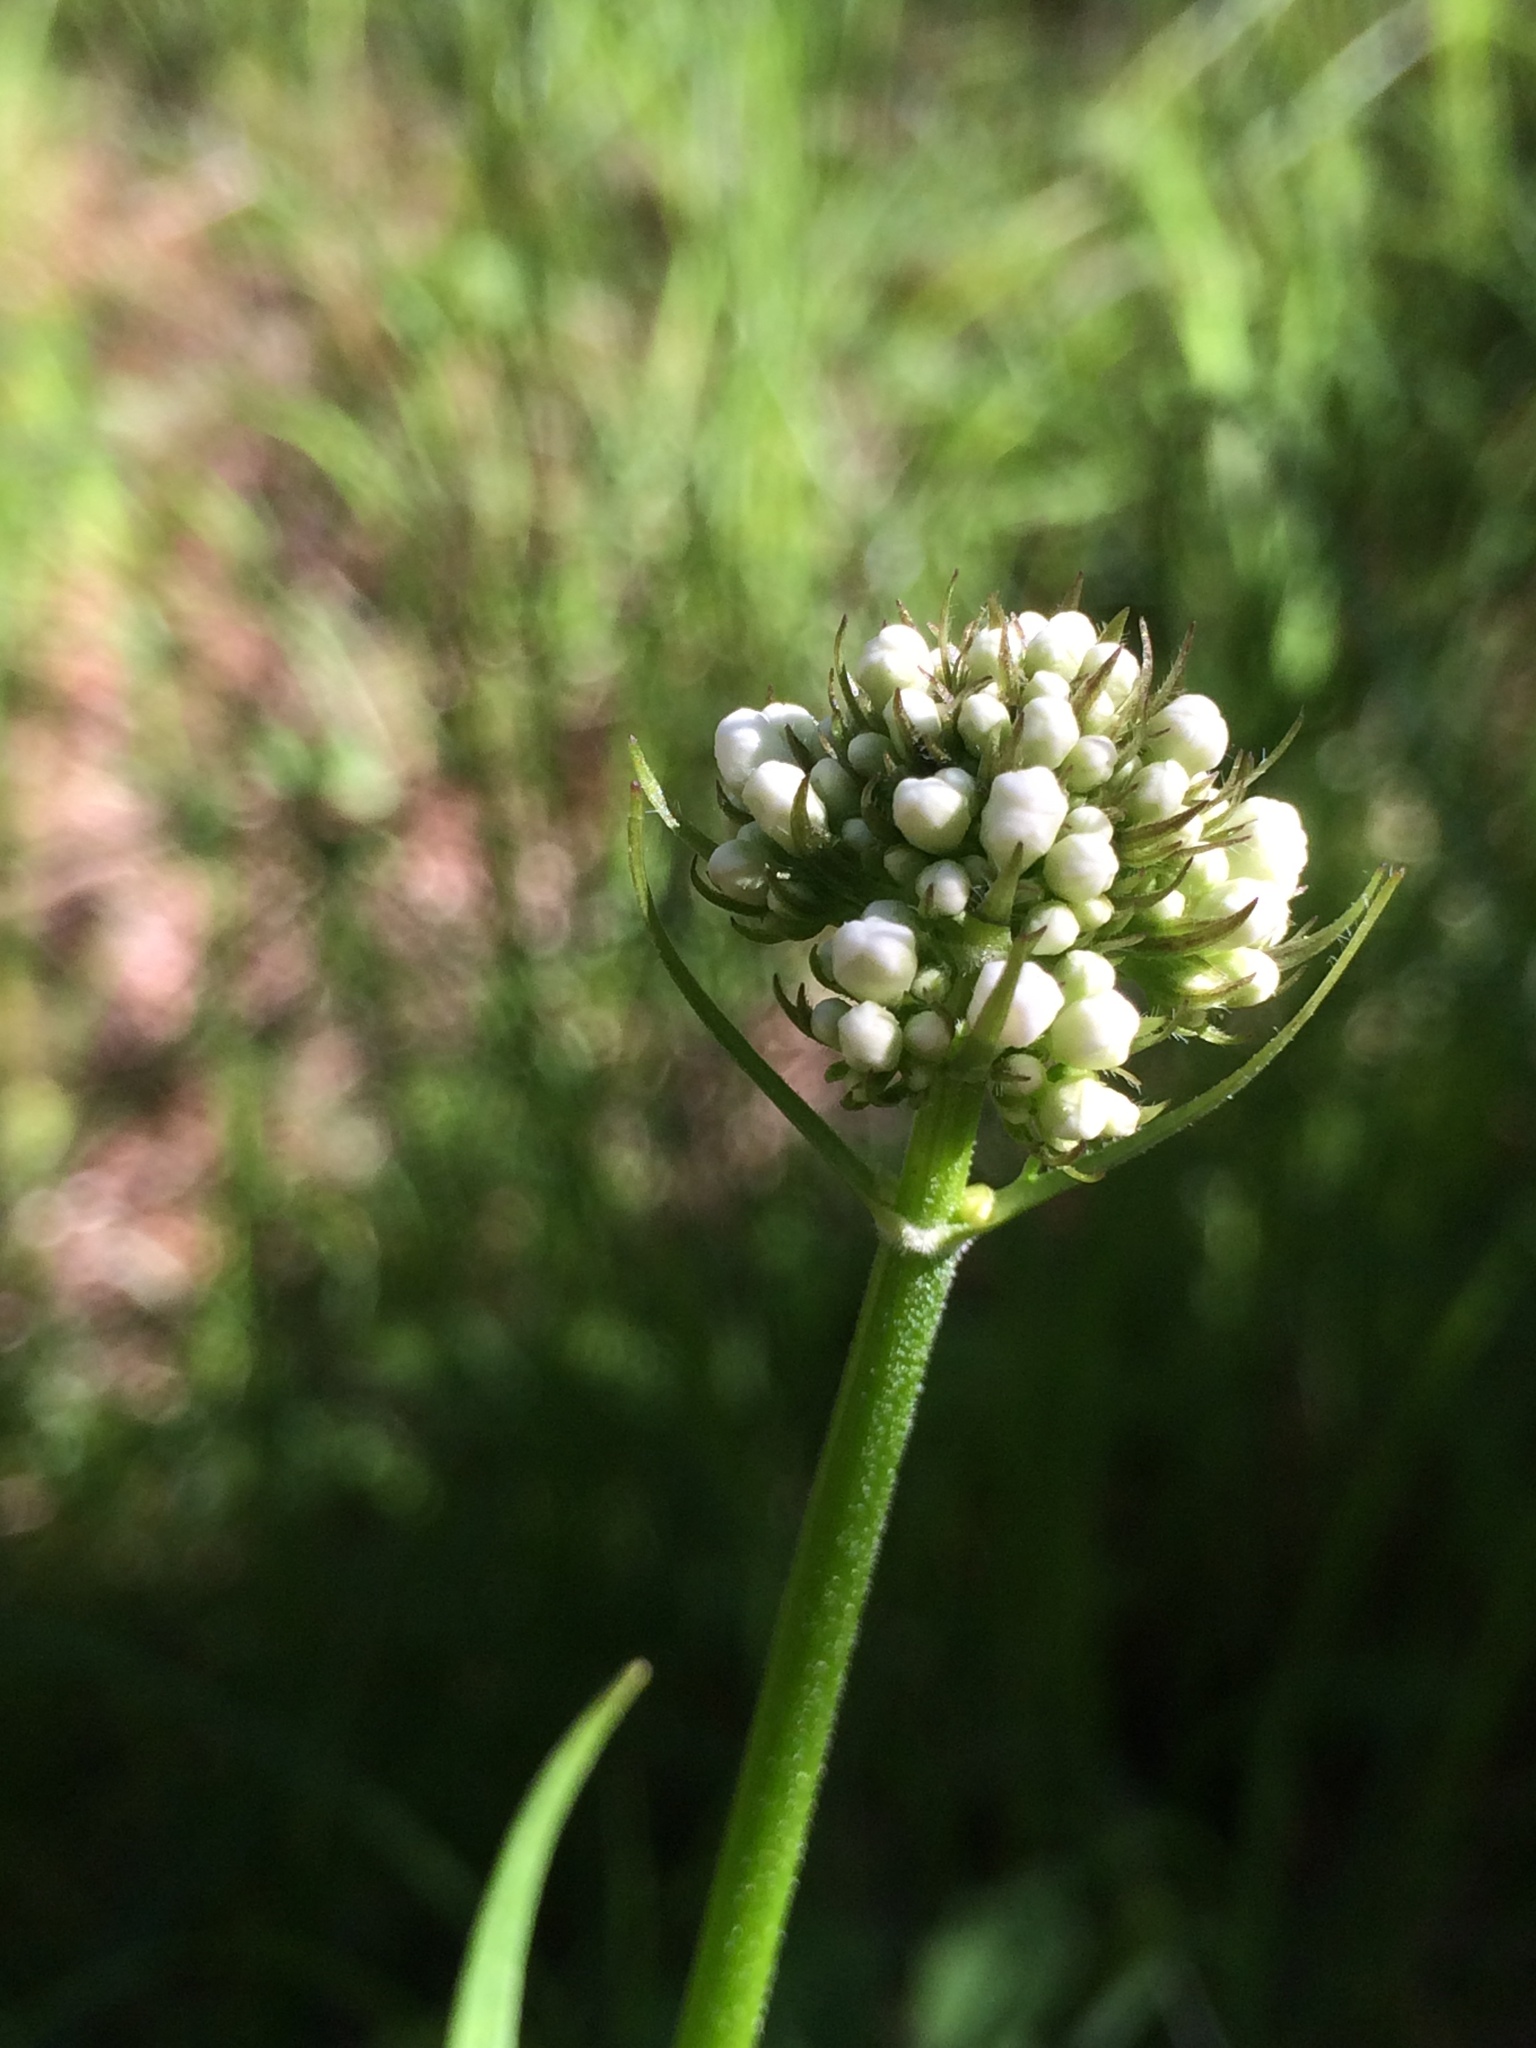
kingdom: Plantae
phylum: Tracheophyta
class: Magnoliopsida
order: Dipsacales
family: Caprifoliaceae
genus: Valeriana
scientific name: Valeriana uliginosa
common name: Marsh valerian
